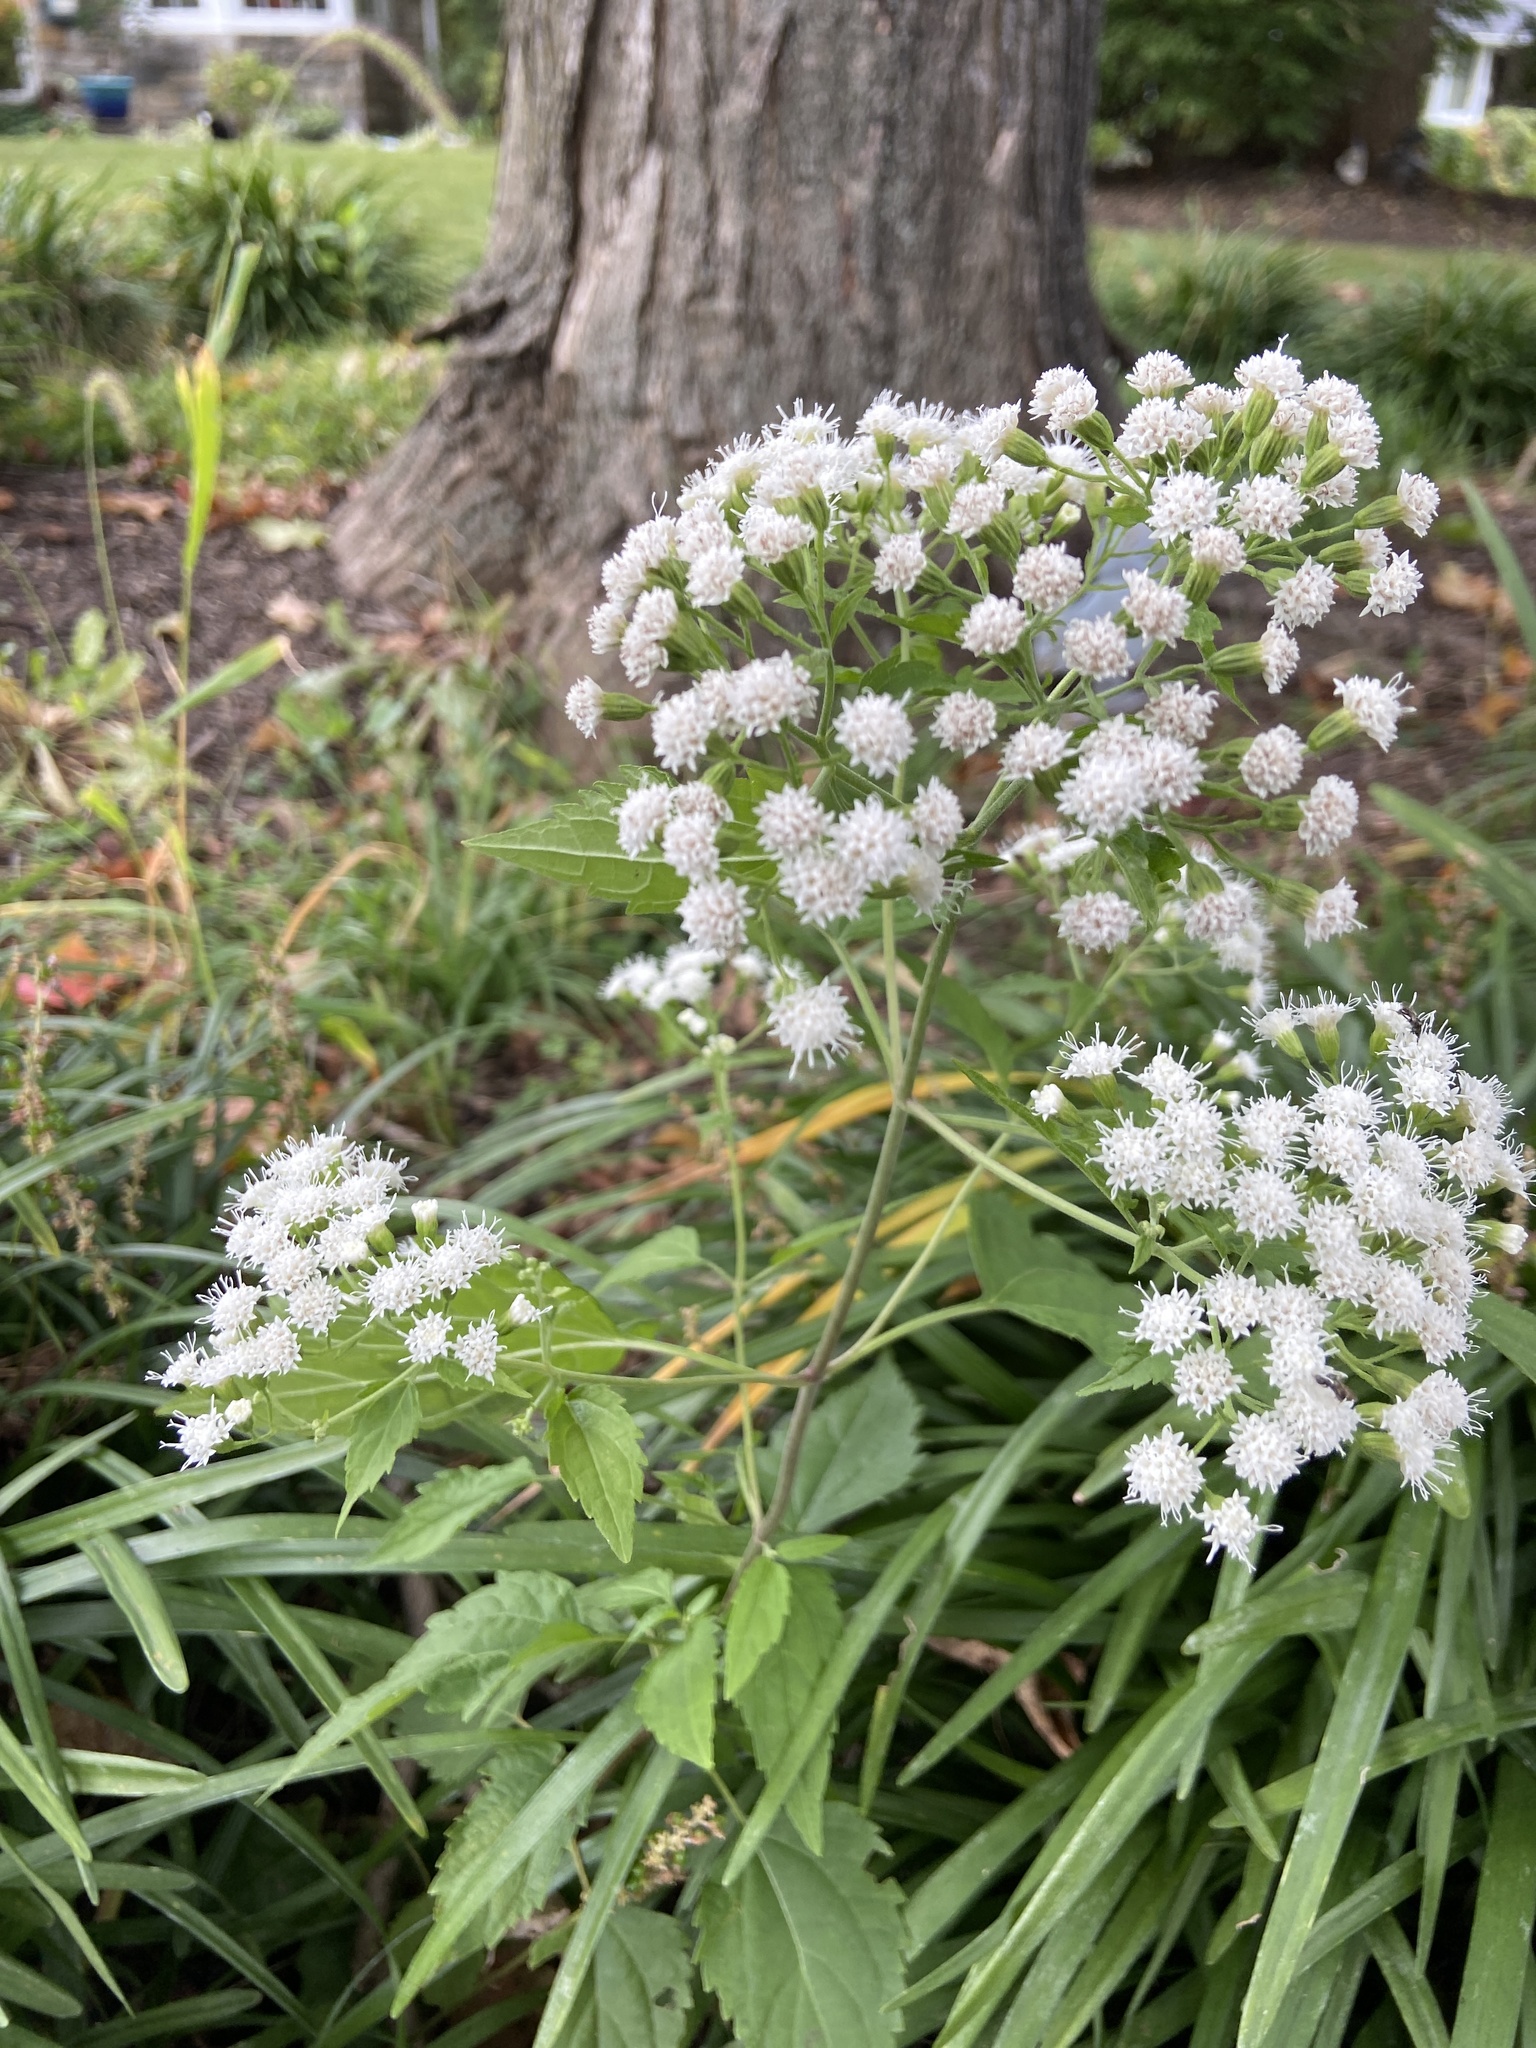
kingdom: Plantae
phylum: Tracheophyta
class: Magnoliopsida
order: Asterales
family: Asteraceae
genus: Ageratina
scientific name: Ageratina altissima
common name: White snakeroot
